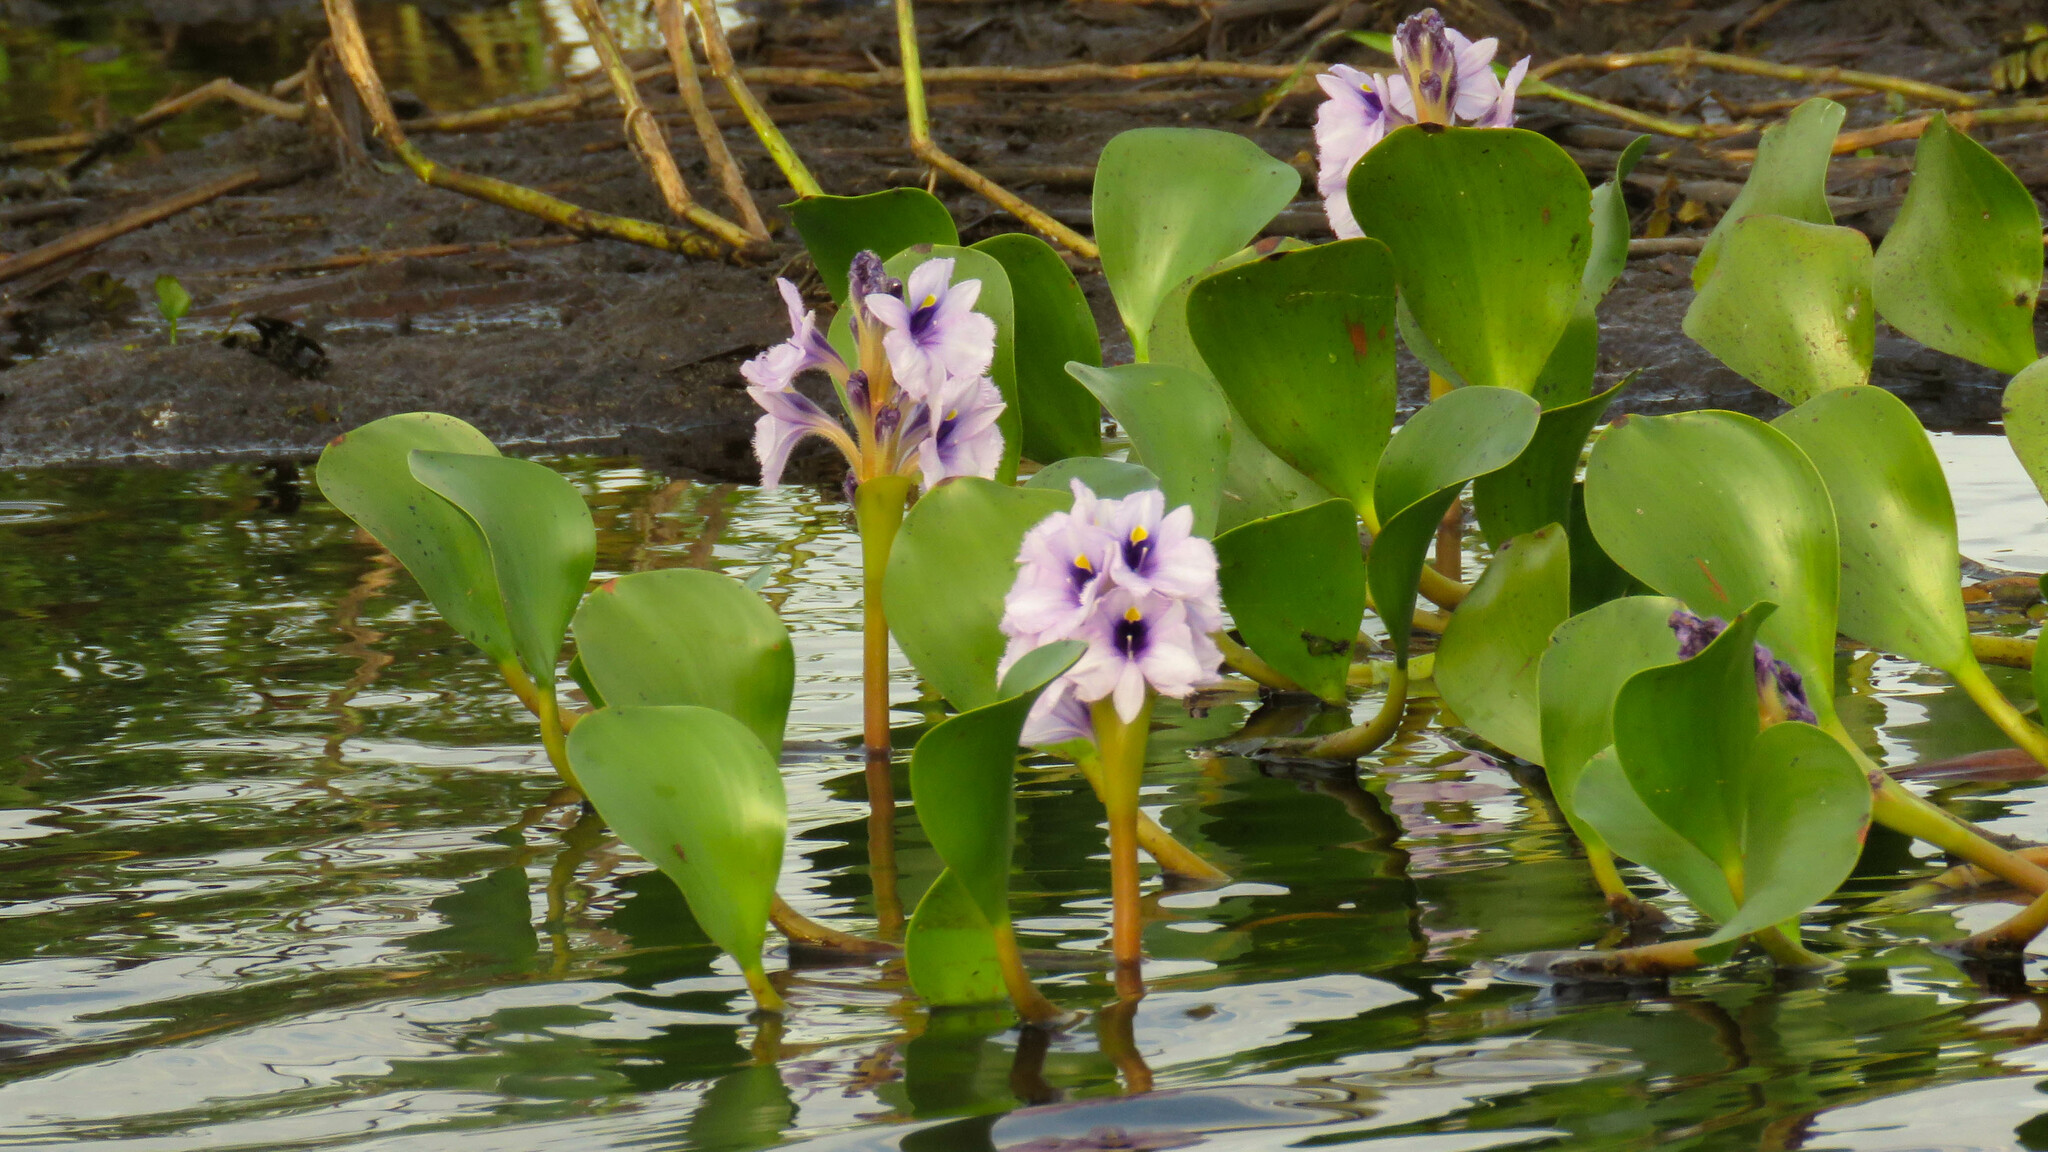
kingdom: Plantae
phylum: Tracheophyta
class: Liliopsida
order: Commelinales
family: Pontederiaceae
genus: Pontederia
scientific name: Pontederia azurea
